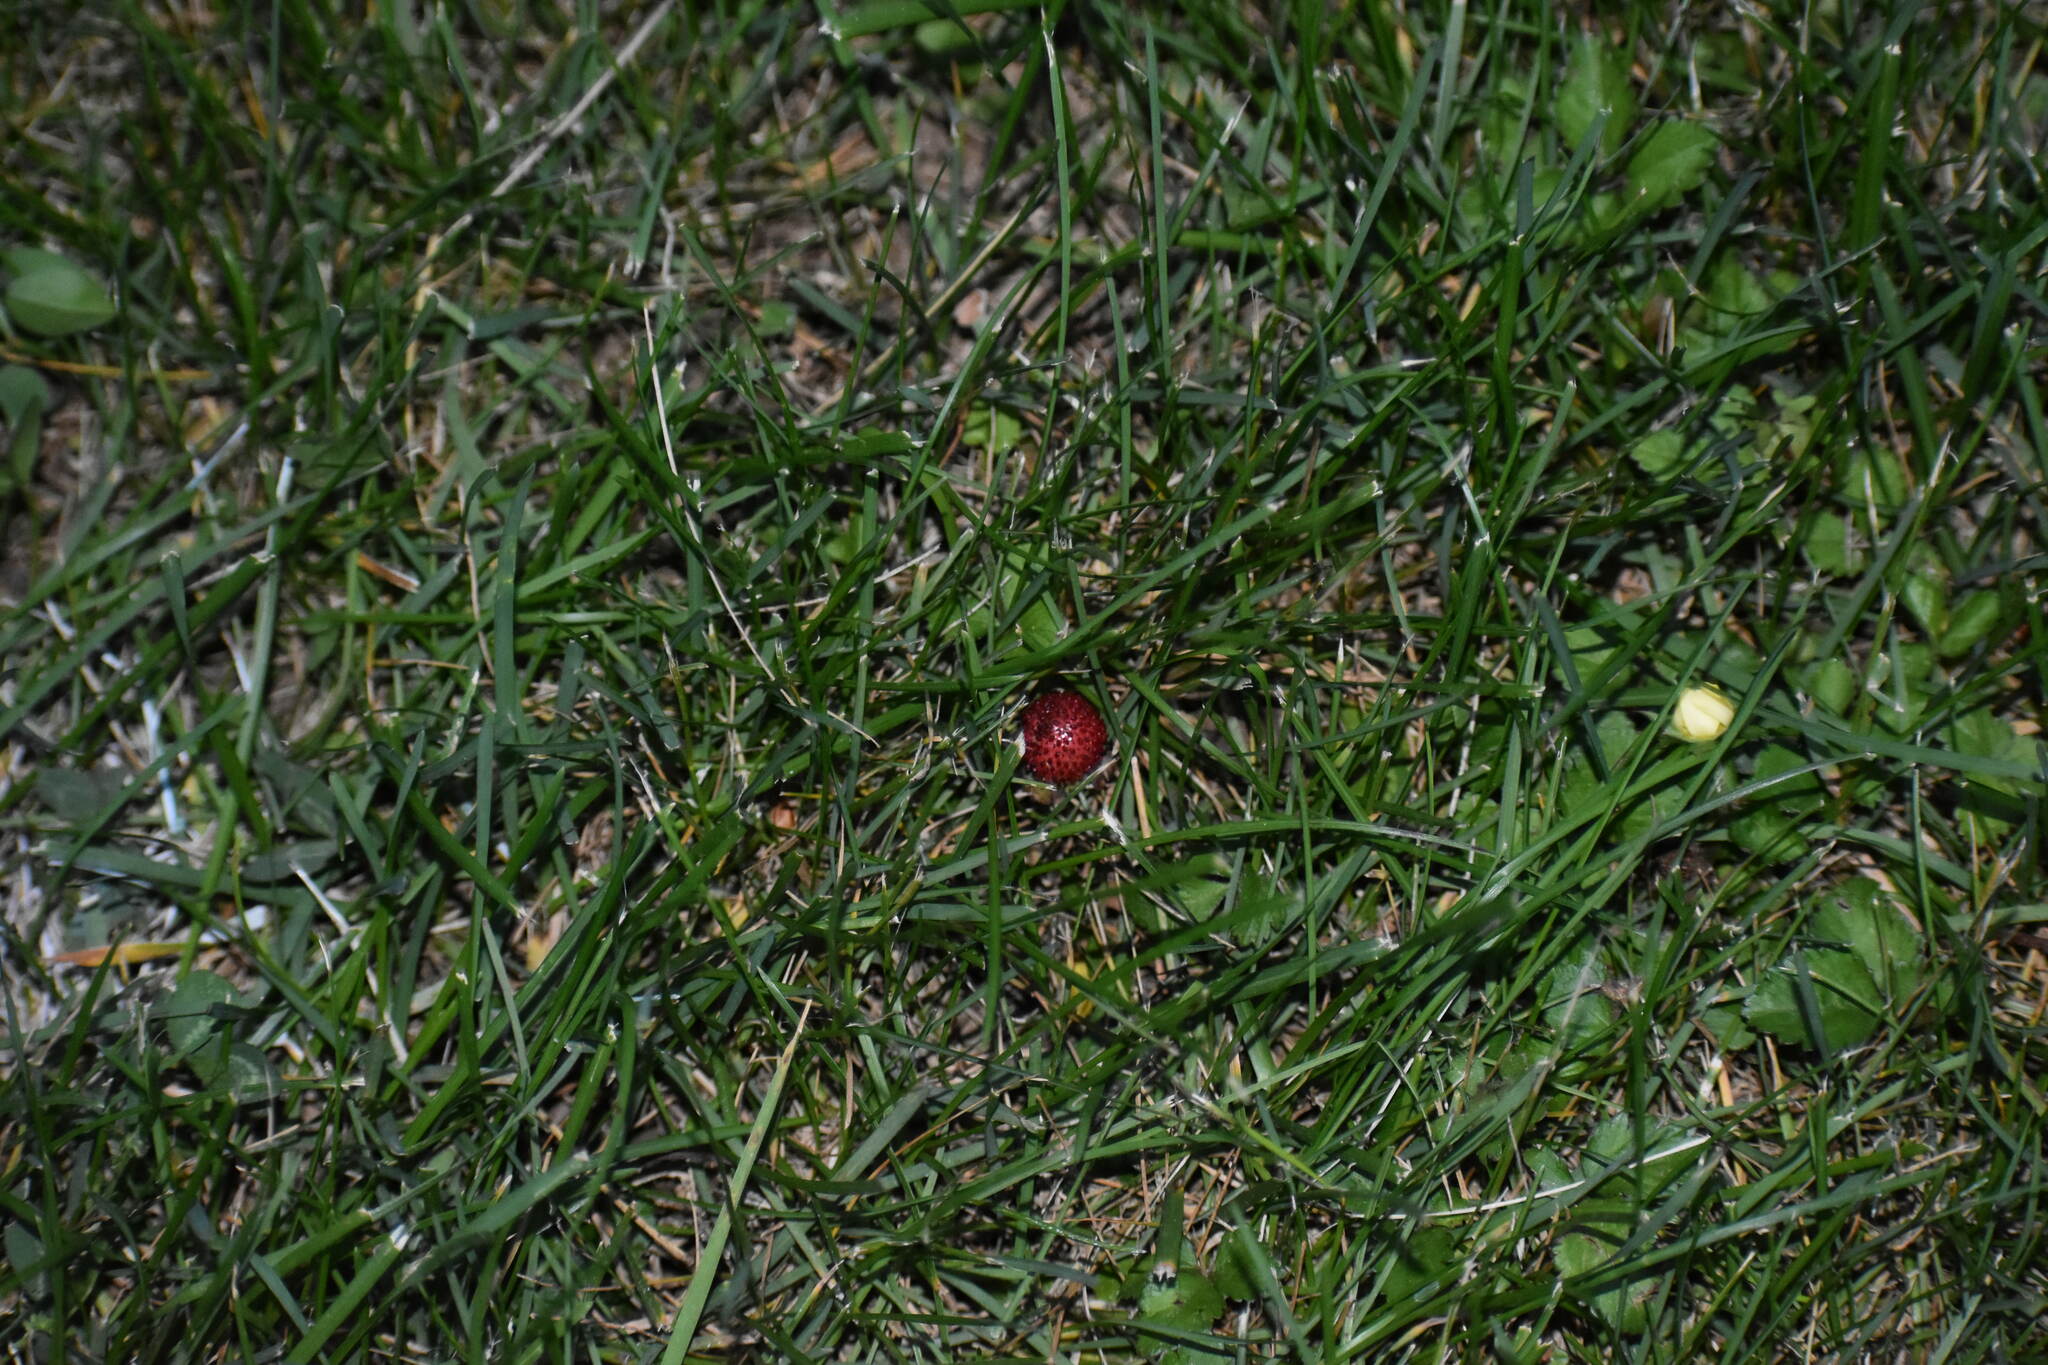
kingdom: Plantae
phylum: Tracheophyta
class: Magnoliopsida
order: Rosales
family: Rosaceae
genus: Potentilla
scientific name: Potentilla indica
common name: Yellow-flowered strawberry
